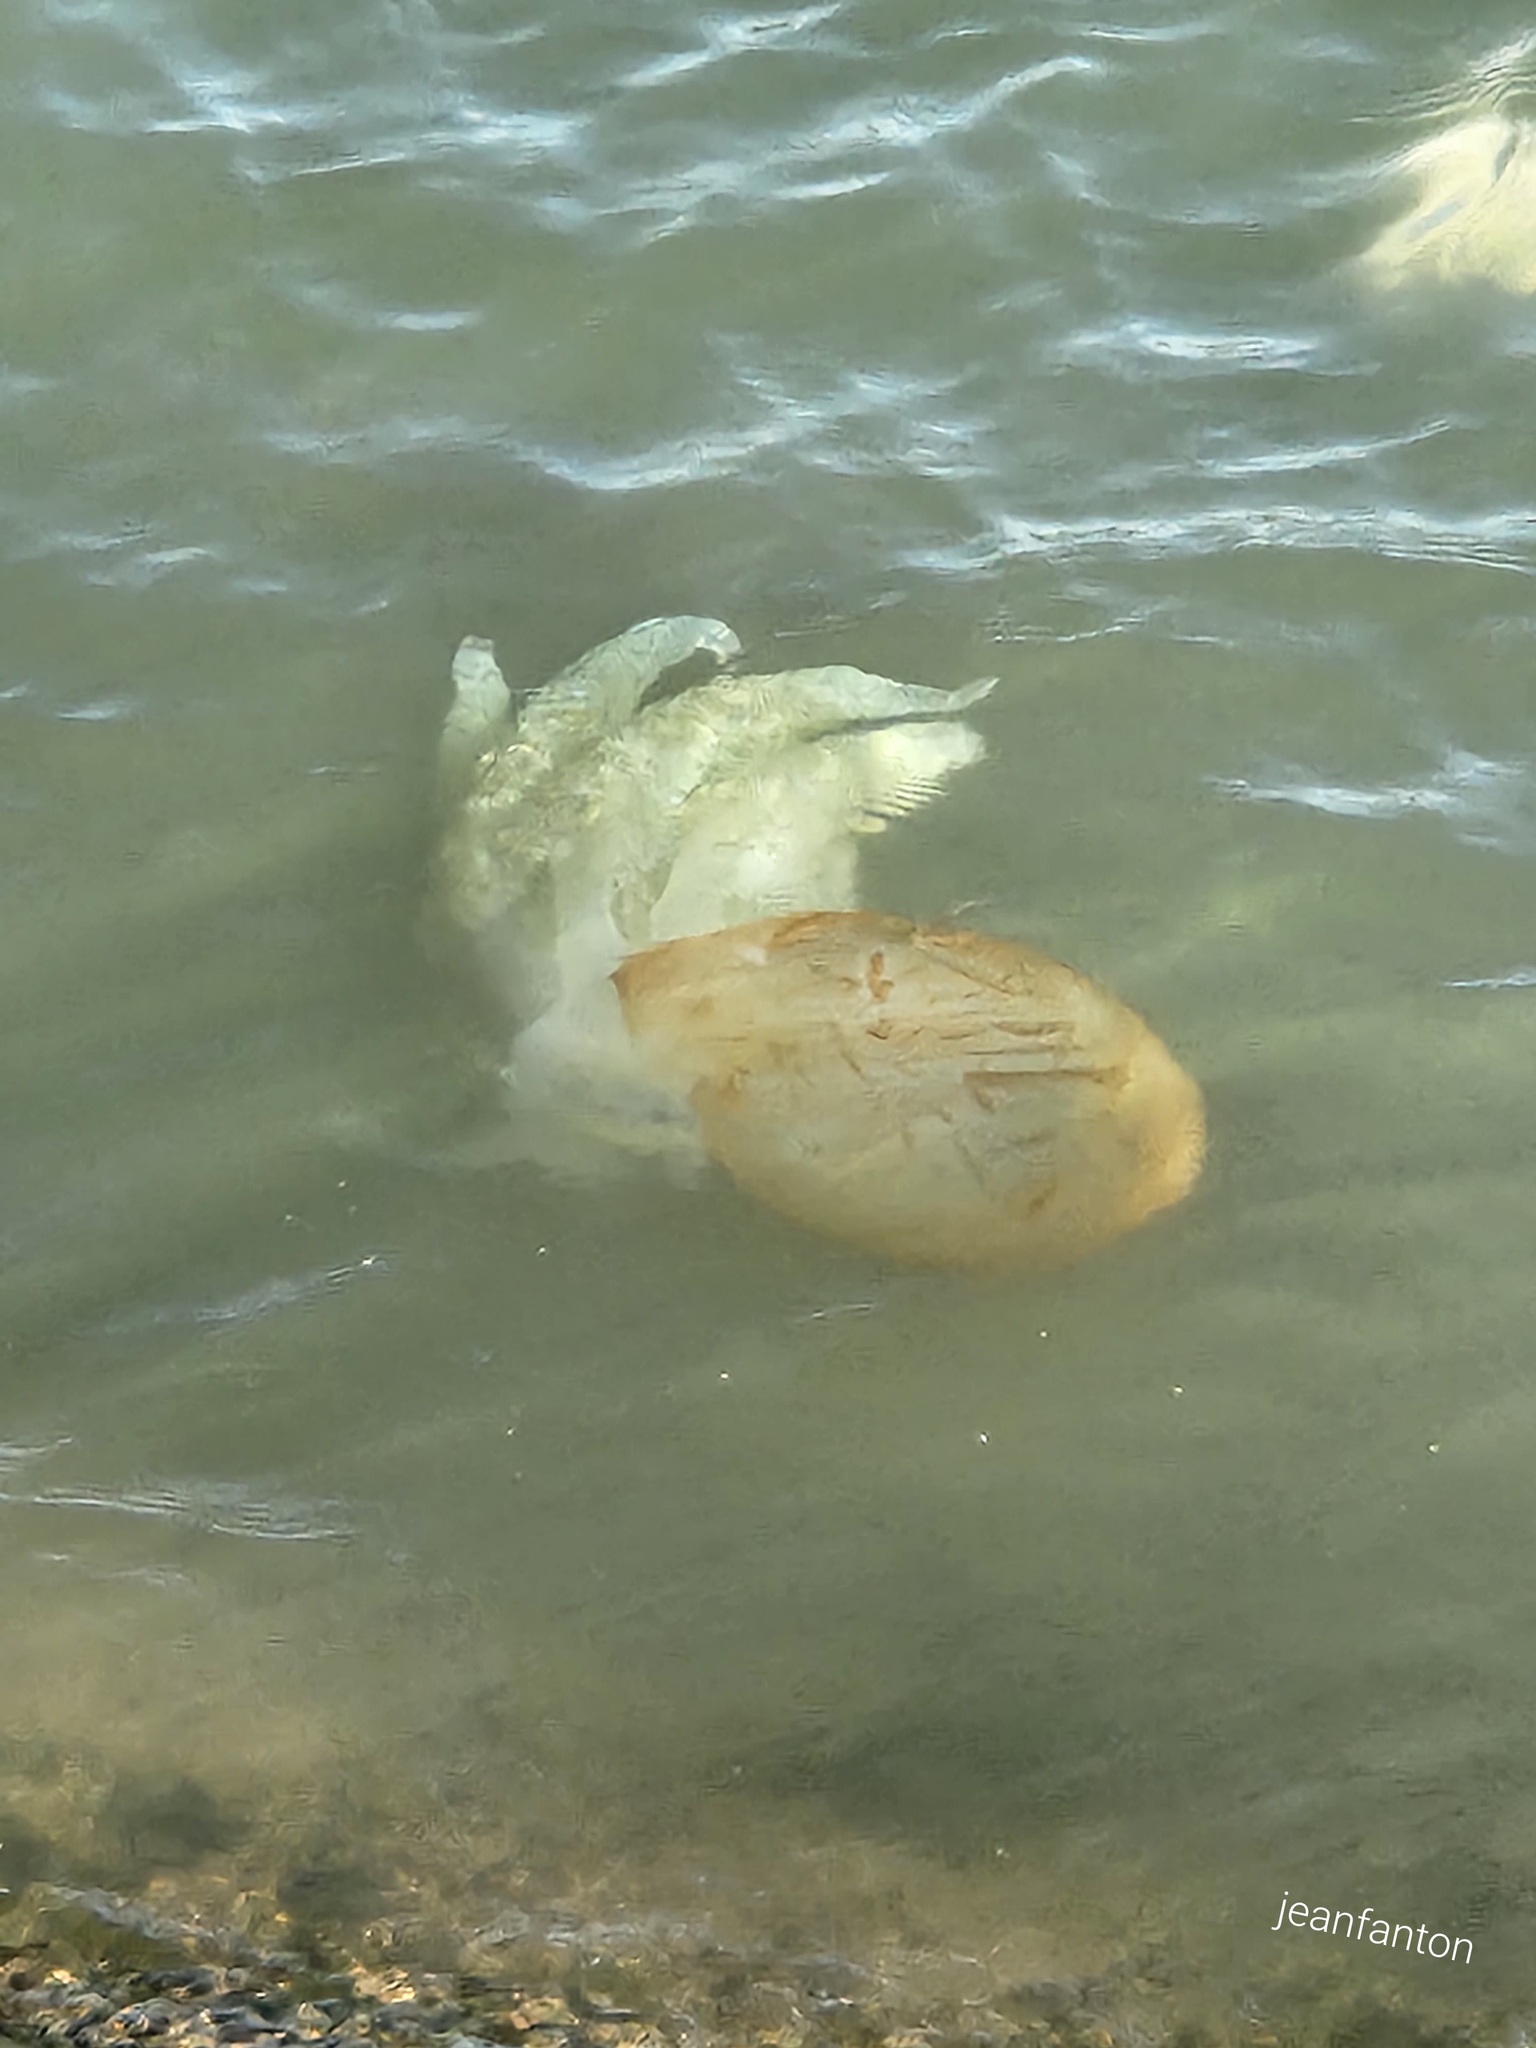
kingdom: Animalia
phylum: Cnidaria
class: Scyphozoa
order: Rhizostomeae
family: Catostylidae
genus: Catostylus
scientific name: Catostylus tagi
